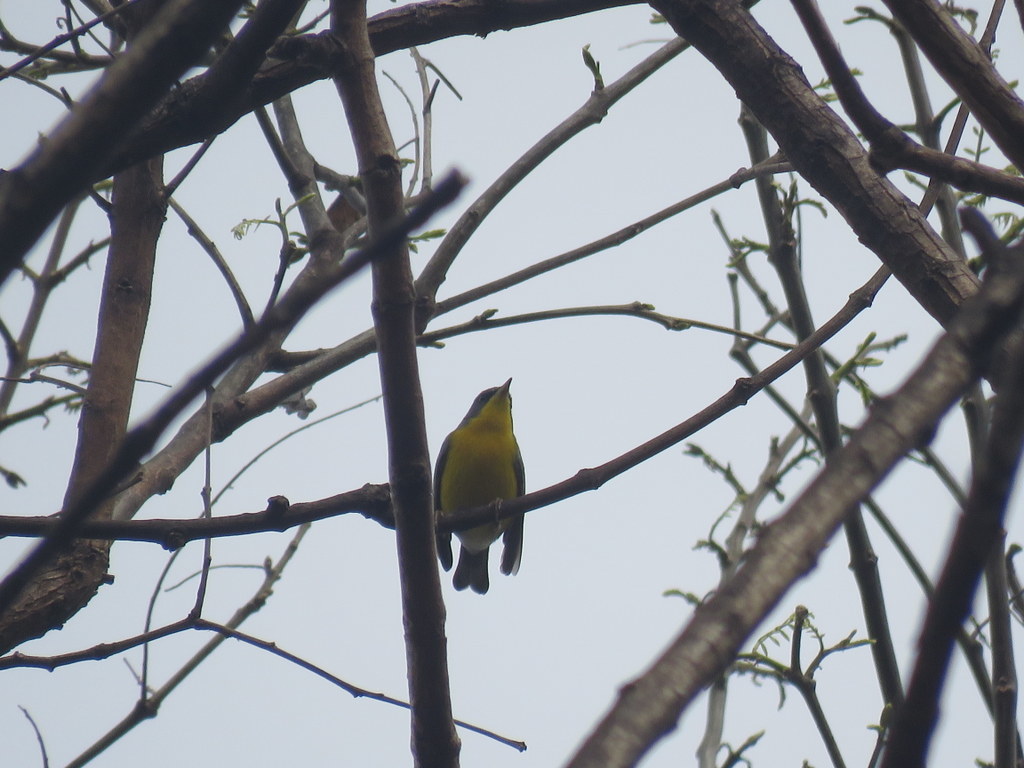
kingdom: Animalia
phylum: Chordata
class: Aves
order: Passeriformes
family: Parulidae
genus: Setophaga
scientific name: Setophaga pitiayumi
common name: Tropical parula
